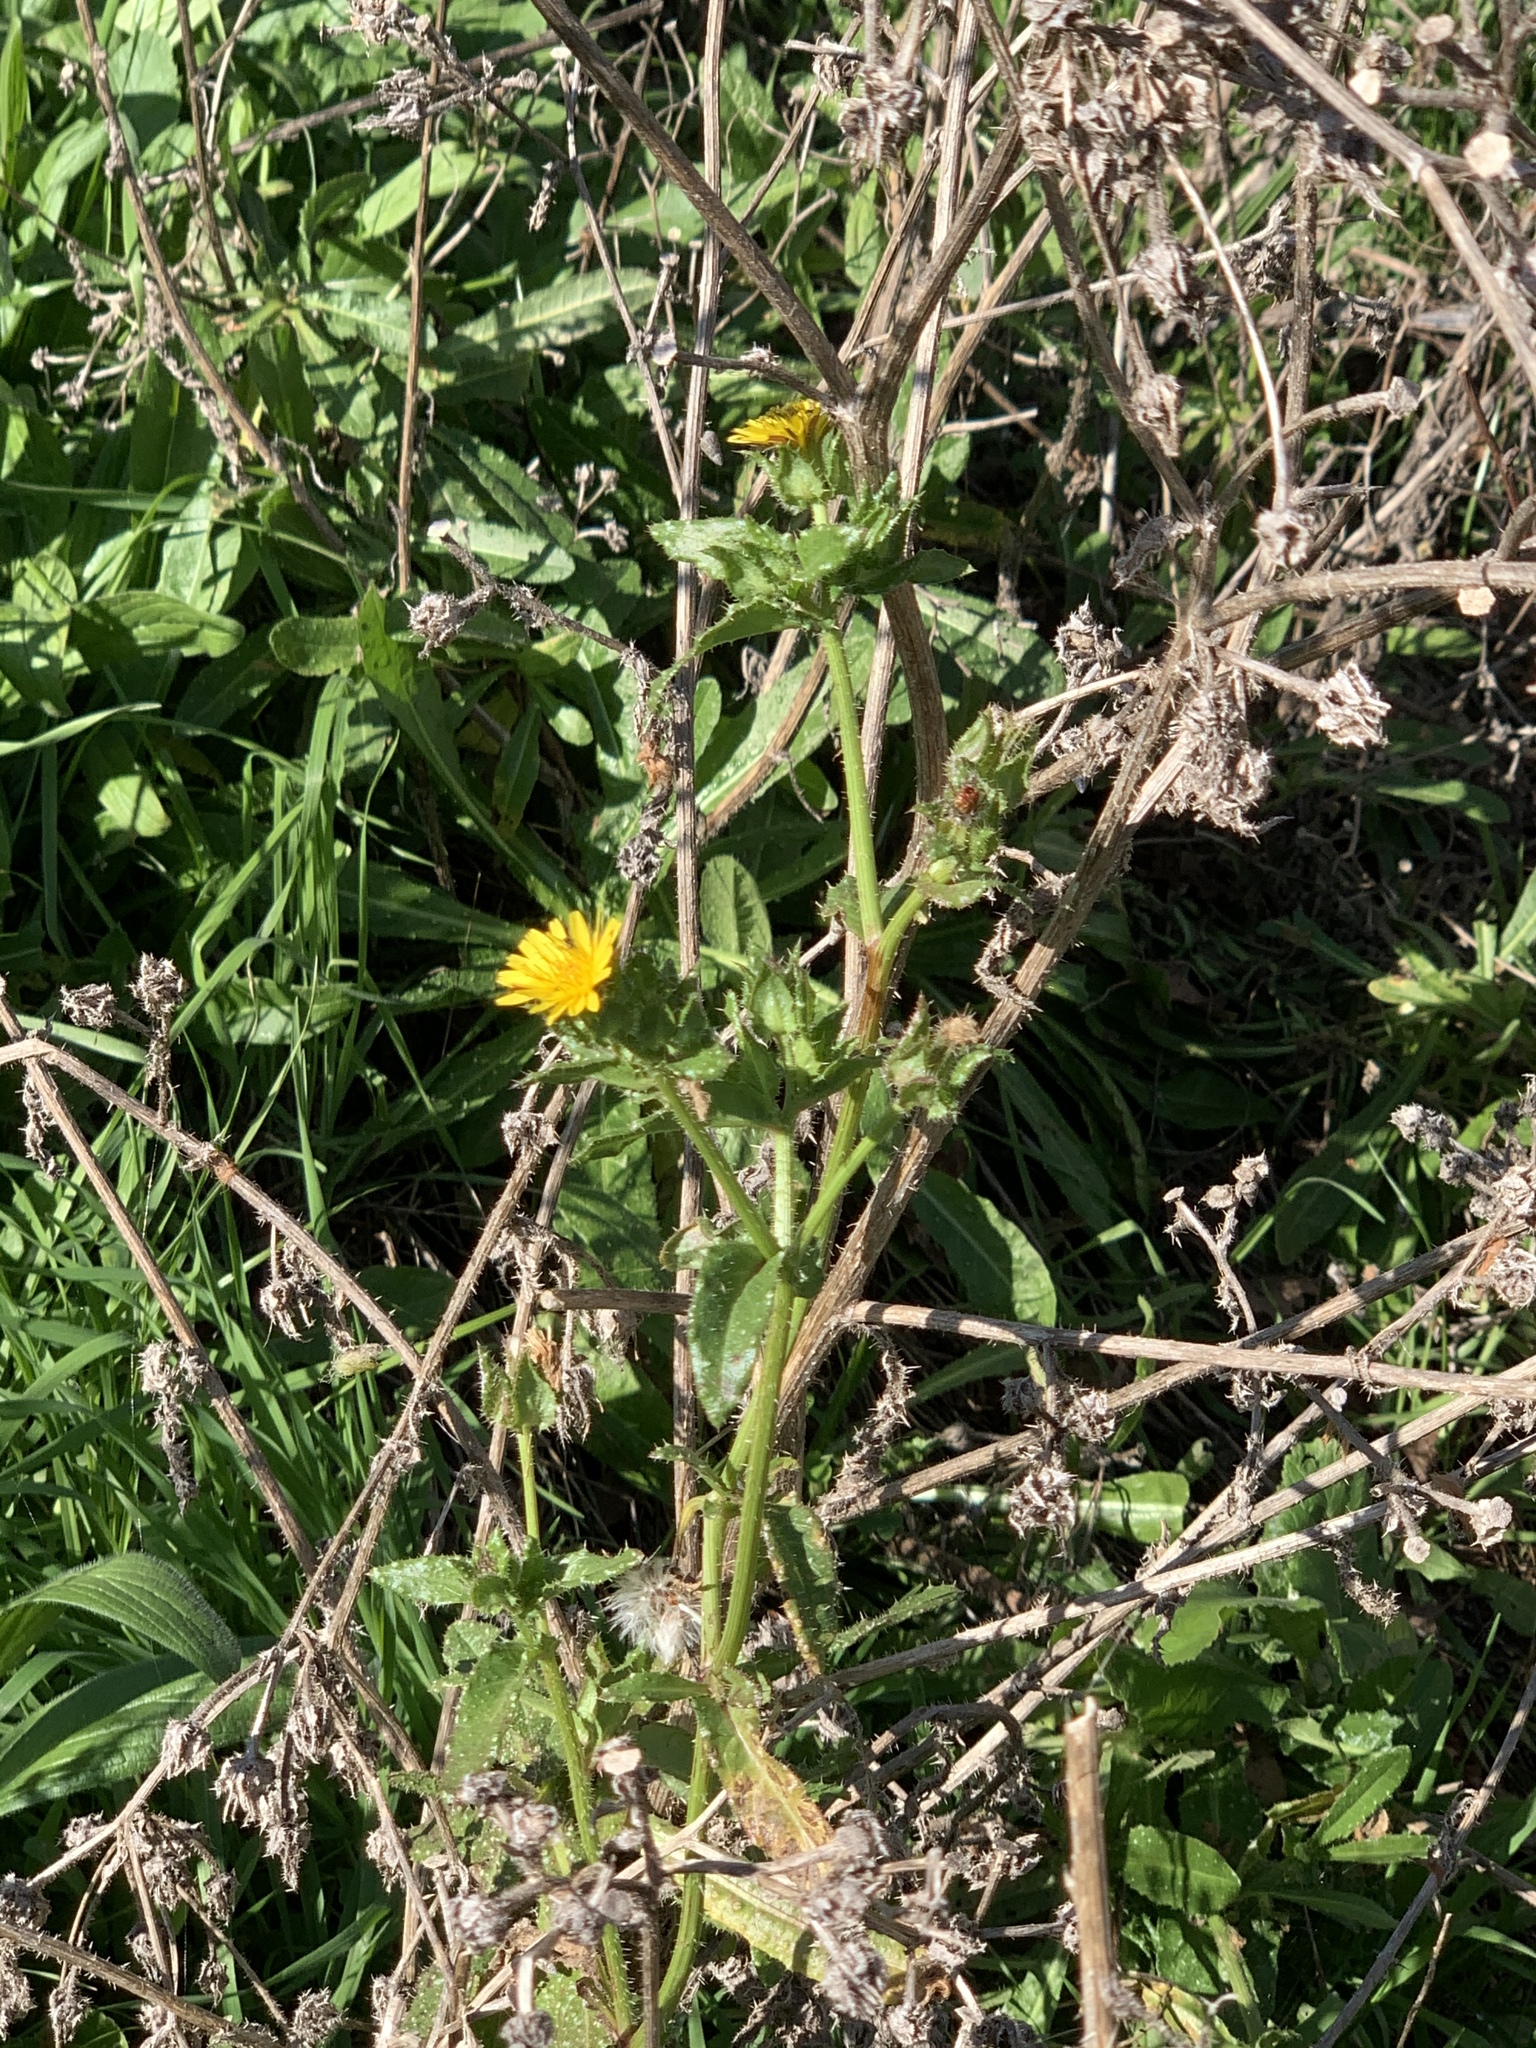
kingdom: Plantae
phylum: Tracheophyta
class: Magnoliopsida
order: Asterales
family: Asteraceae
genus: Helminthotheca
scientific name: Helminthotheca echioides
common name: Ox-tongue
